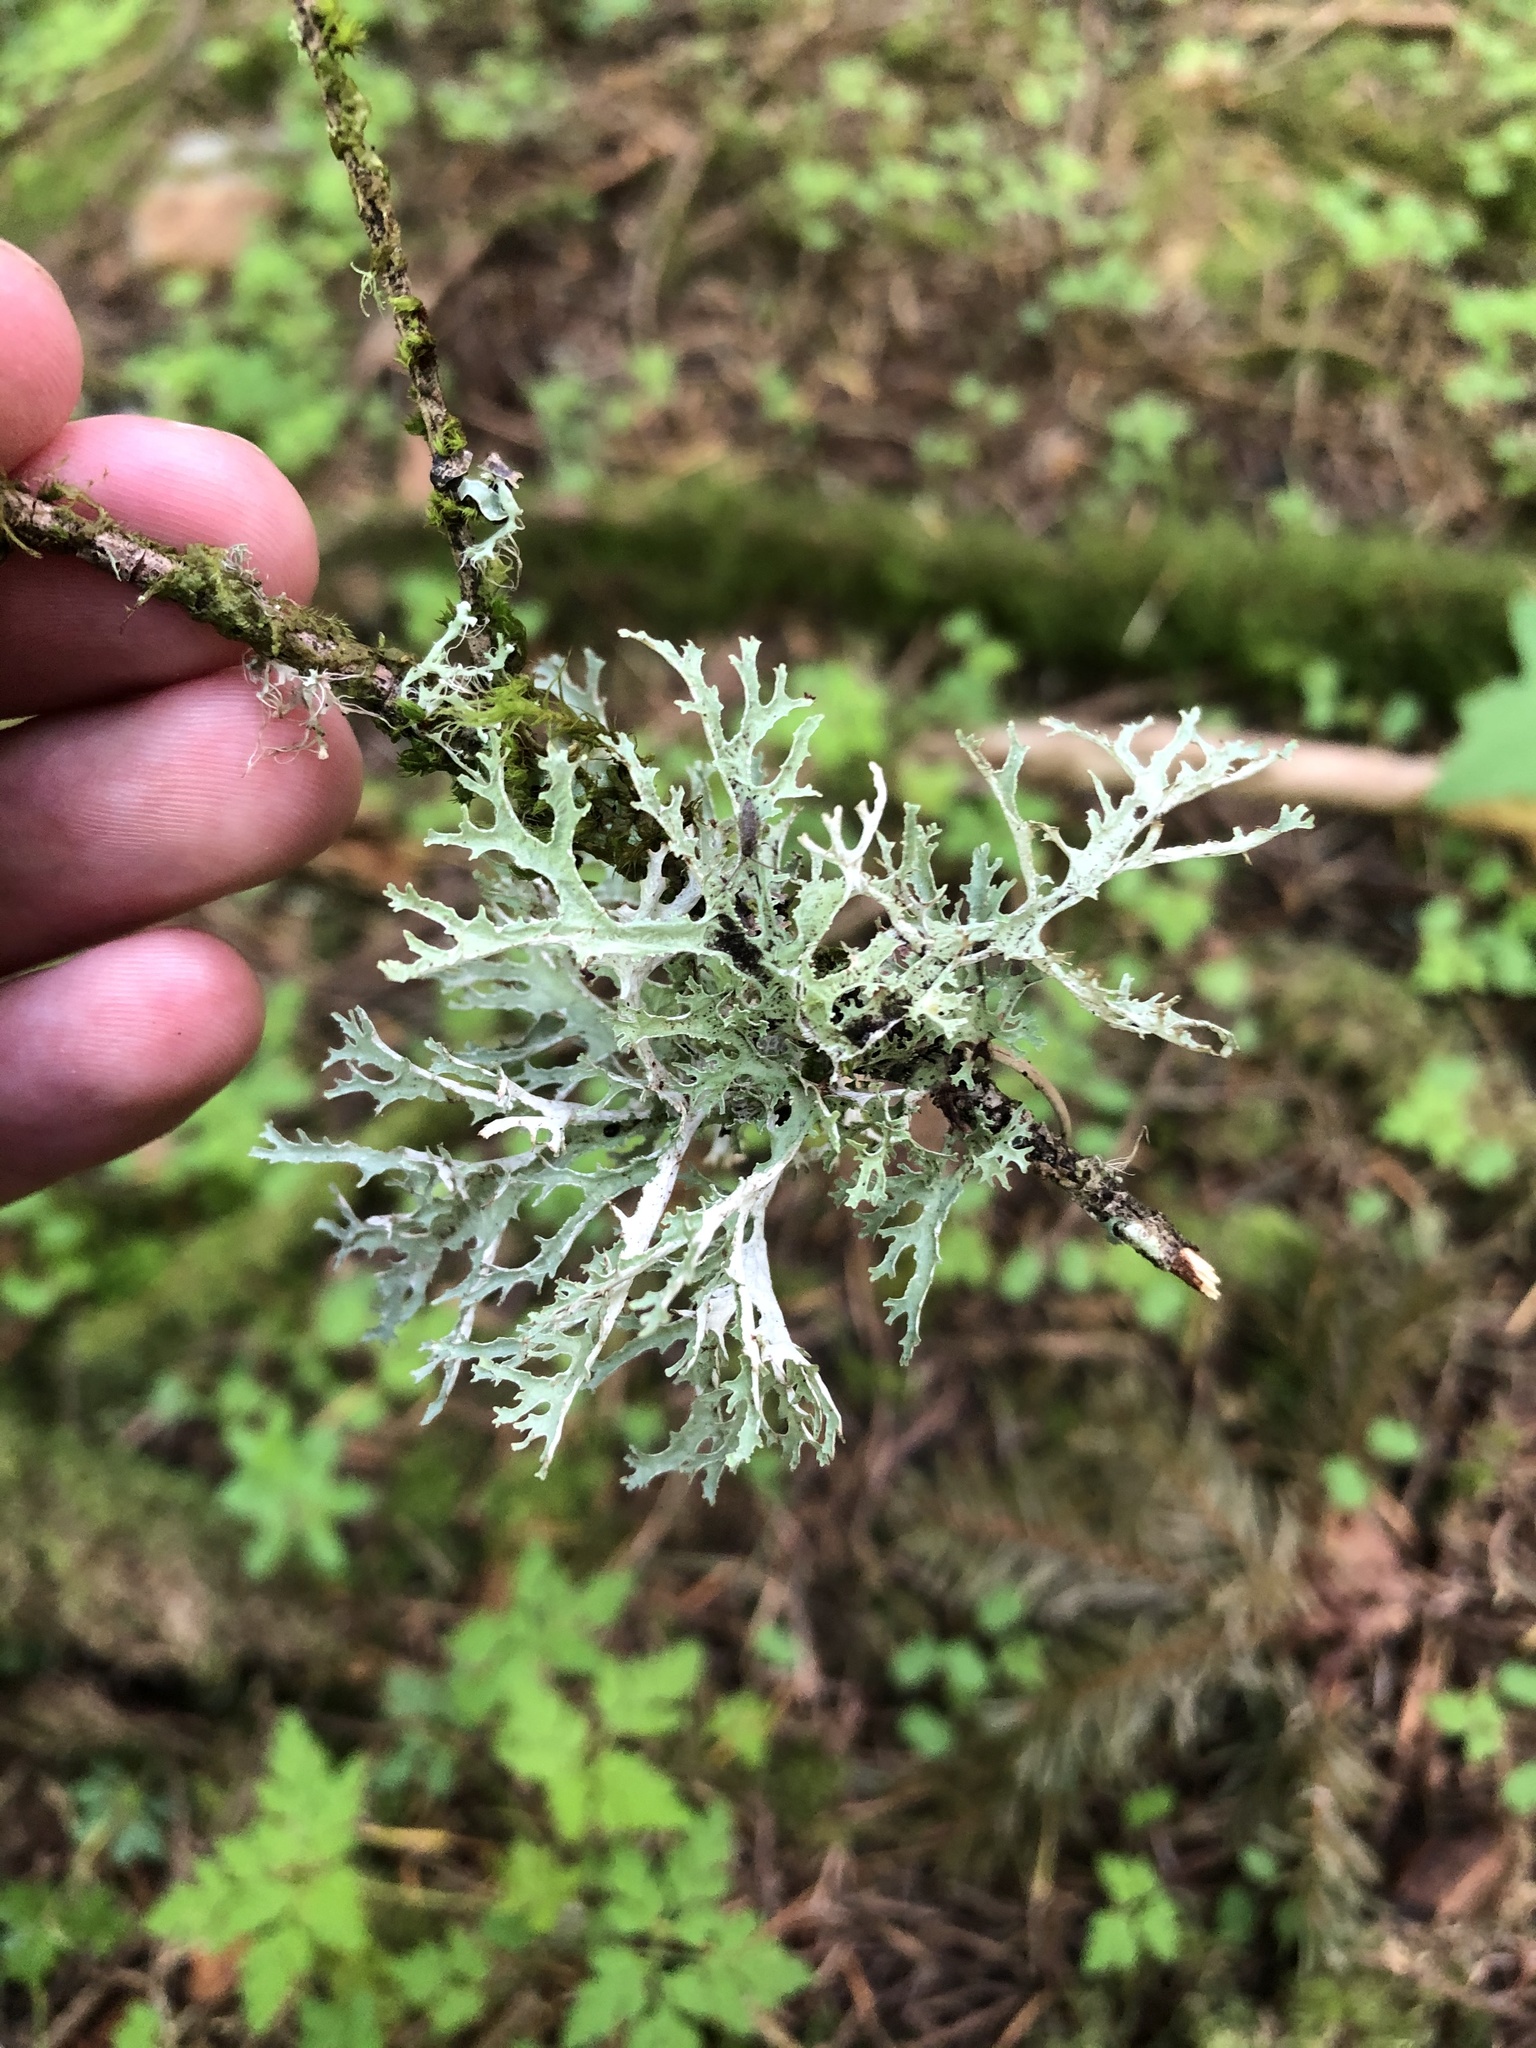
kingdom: Fungi
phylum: Ascomycota
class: Lecanoromycetes
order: Lecanorales
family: Parmeliaceae
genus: Evernia
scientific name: Evernia prunastri
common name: Oak moss
